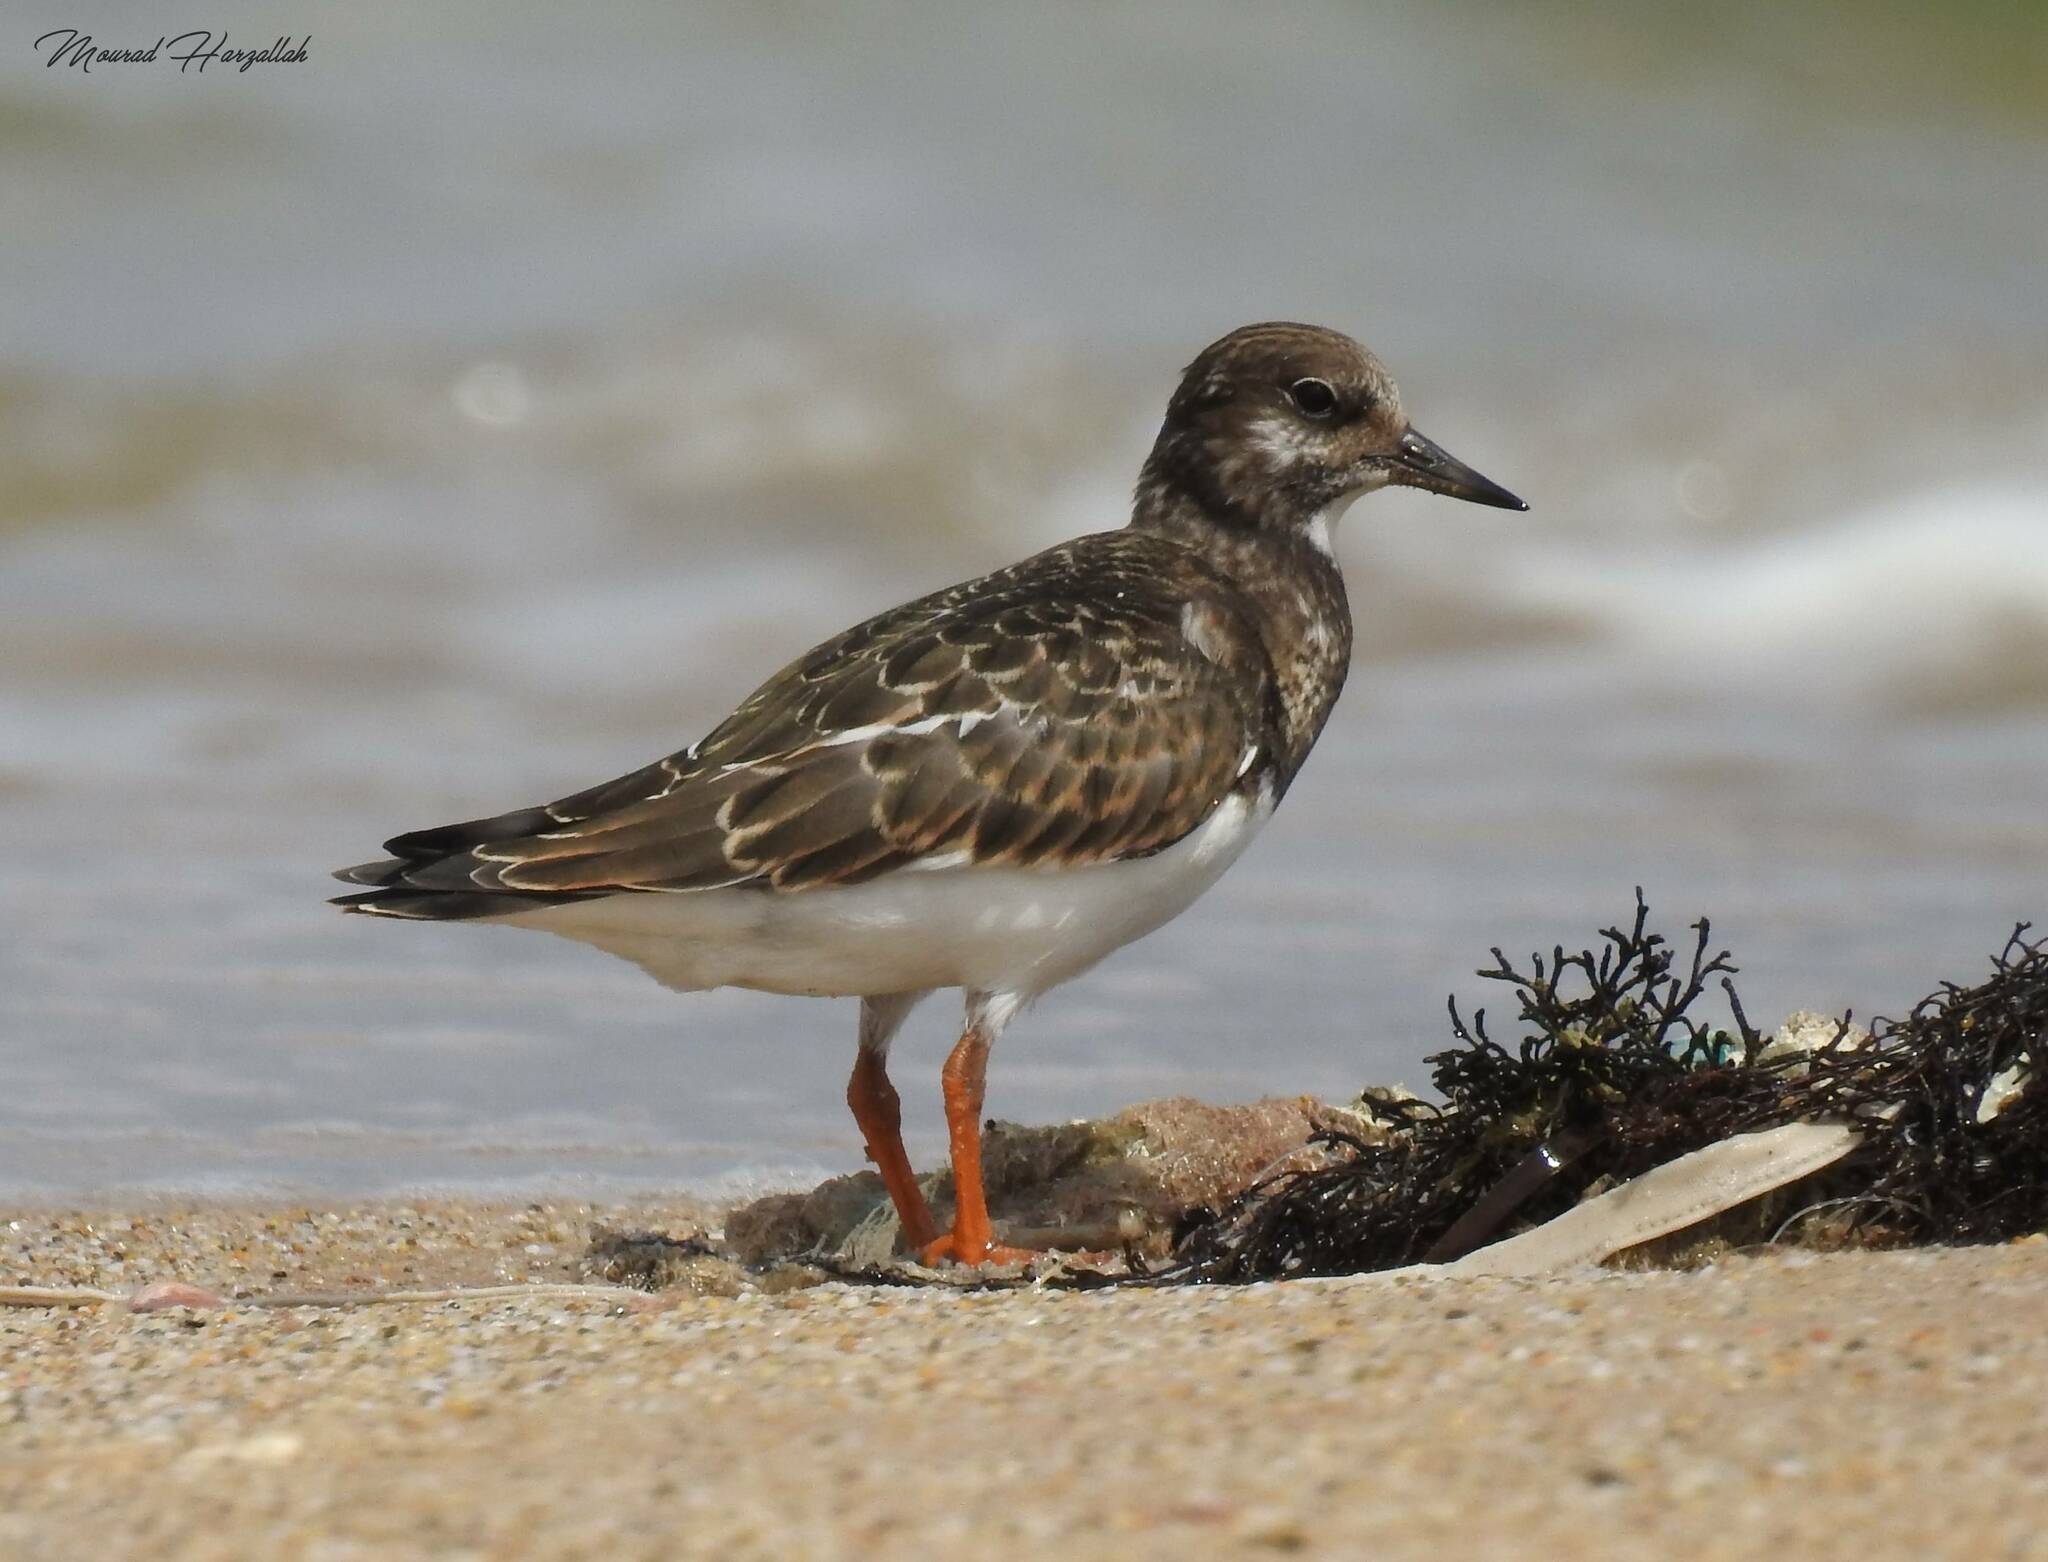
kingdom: Animalia
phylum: Chordata
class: Aves
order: Charadriiformes
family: Scolopacidae
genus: Arenaria
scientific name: Arenaria interpres
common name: Ruddy turnstone
